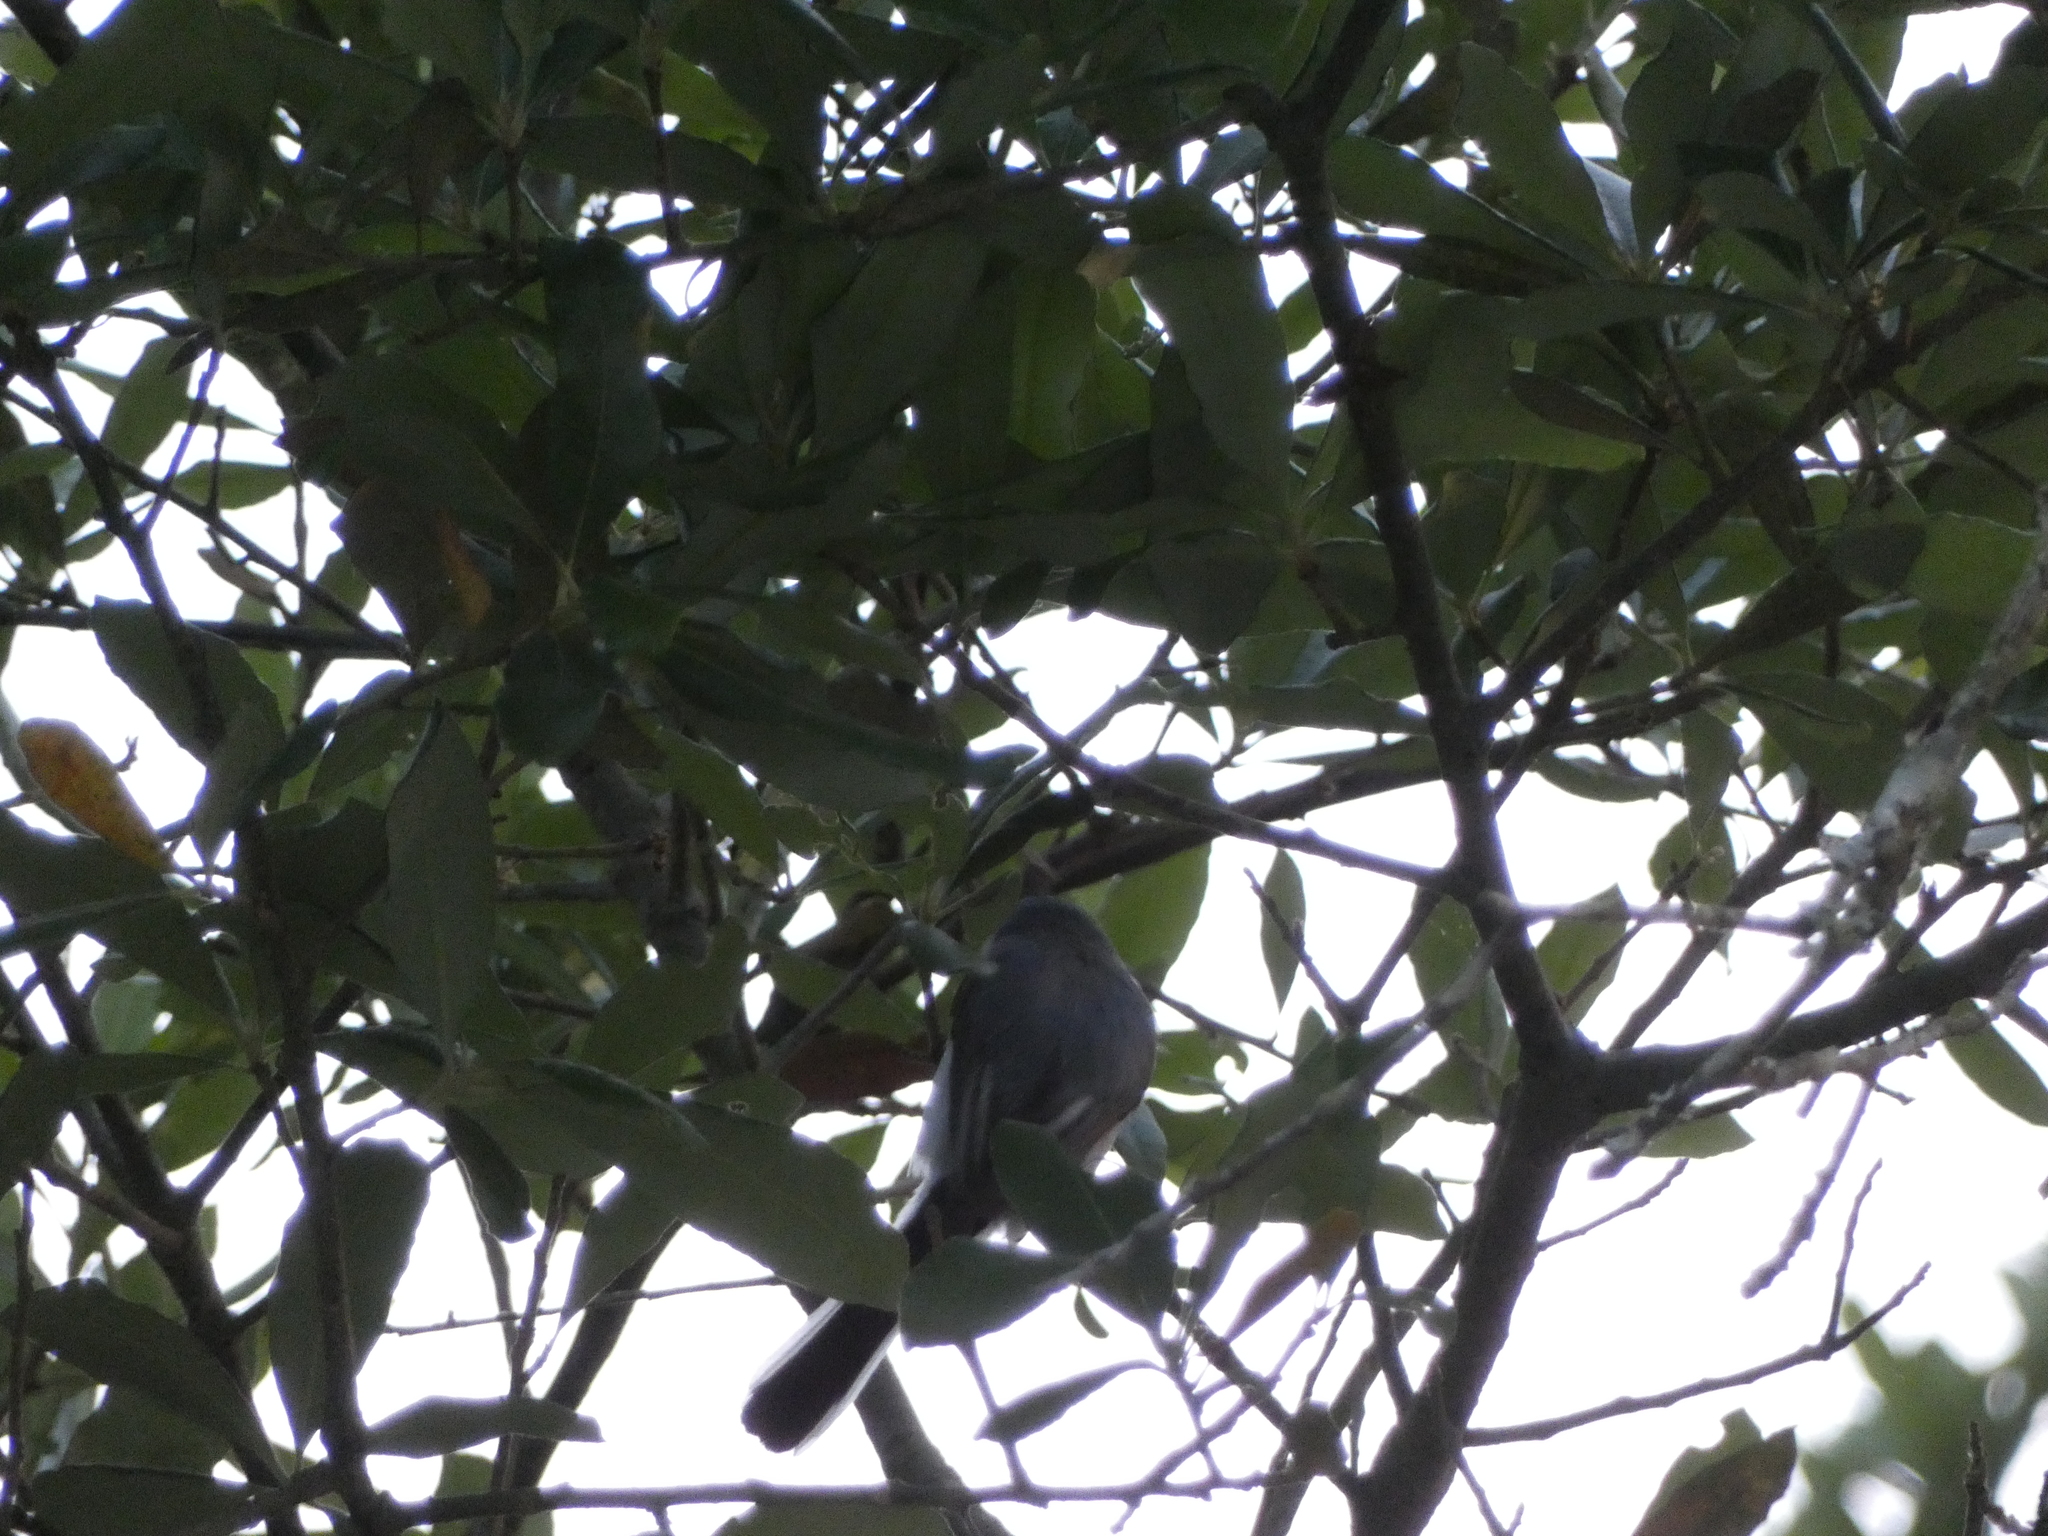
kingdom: Animalia
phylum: Chordata
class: Aves
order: Passeriformes
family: Polioptilidae
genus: Polioptila
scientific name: Polioptila caerulea
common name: Blue-gray gnatcatcher
